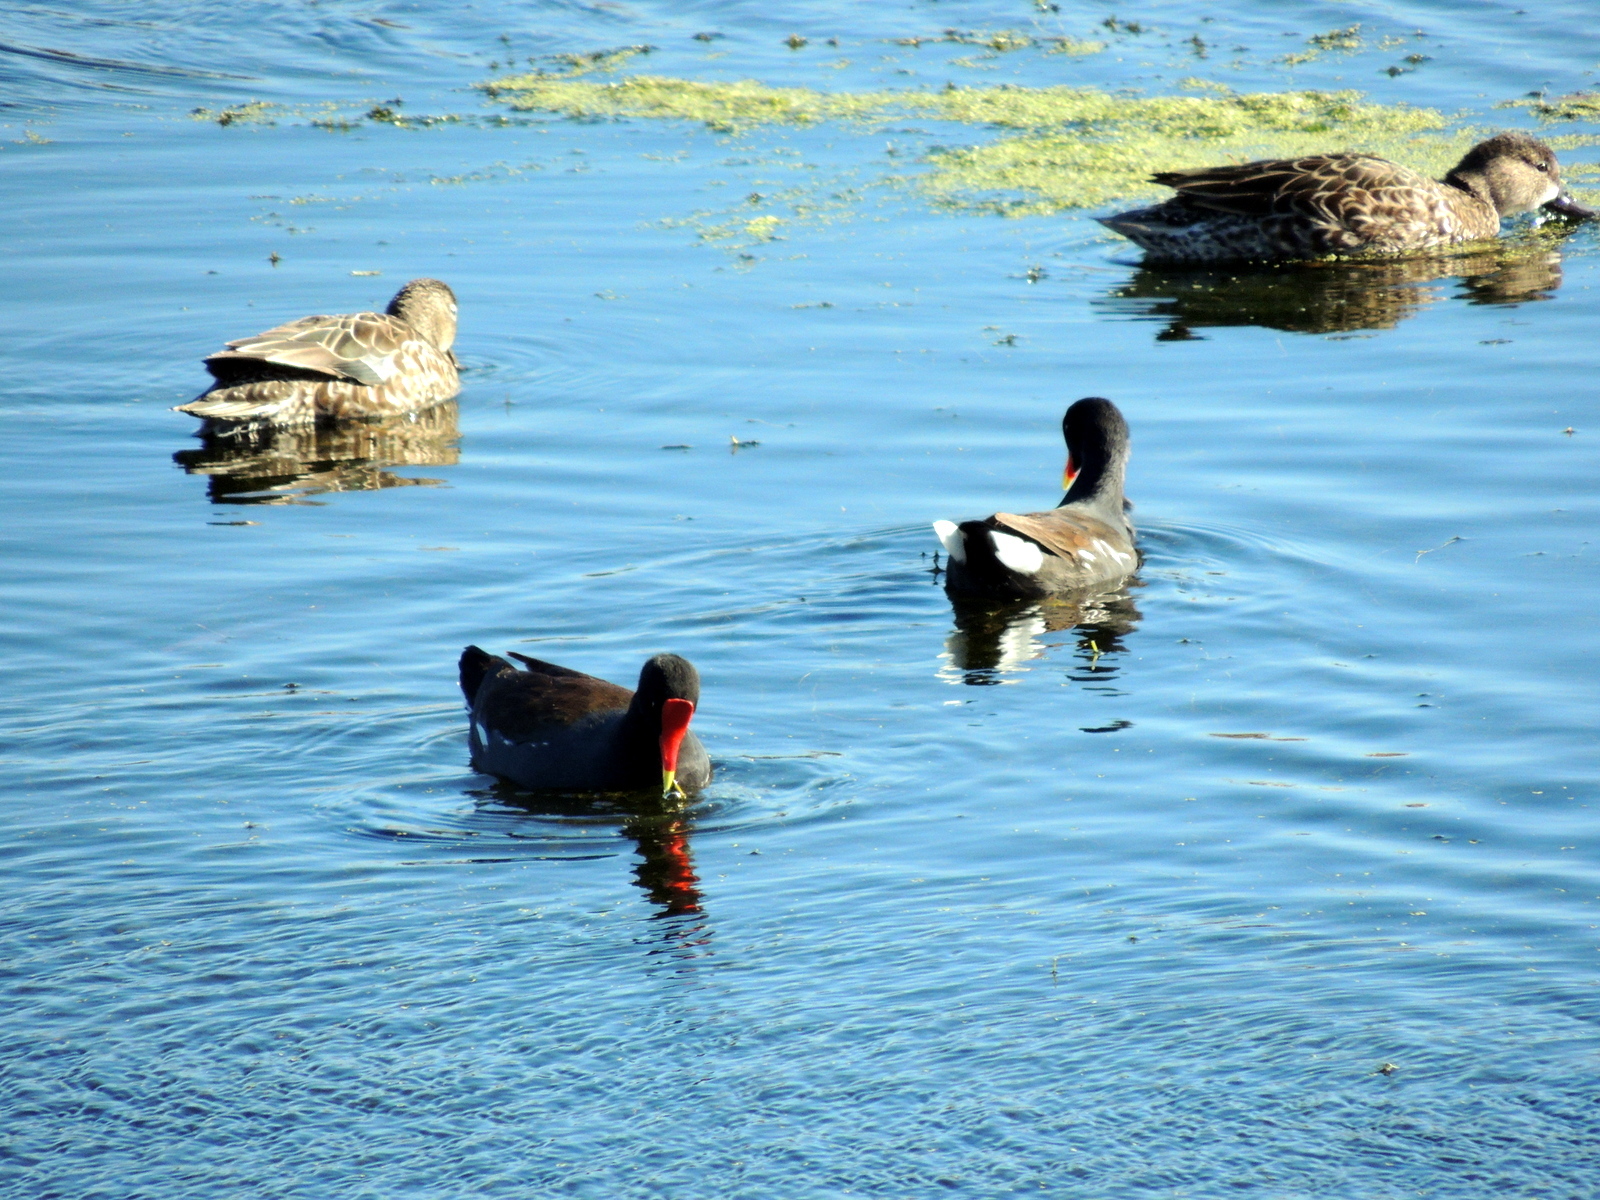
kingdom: Animalia
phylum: Chordata
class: Aves
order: Gruiformes
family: Rallidae
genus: Gallinula
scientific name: Gallinula chloropus
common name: Common moorhen
